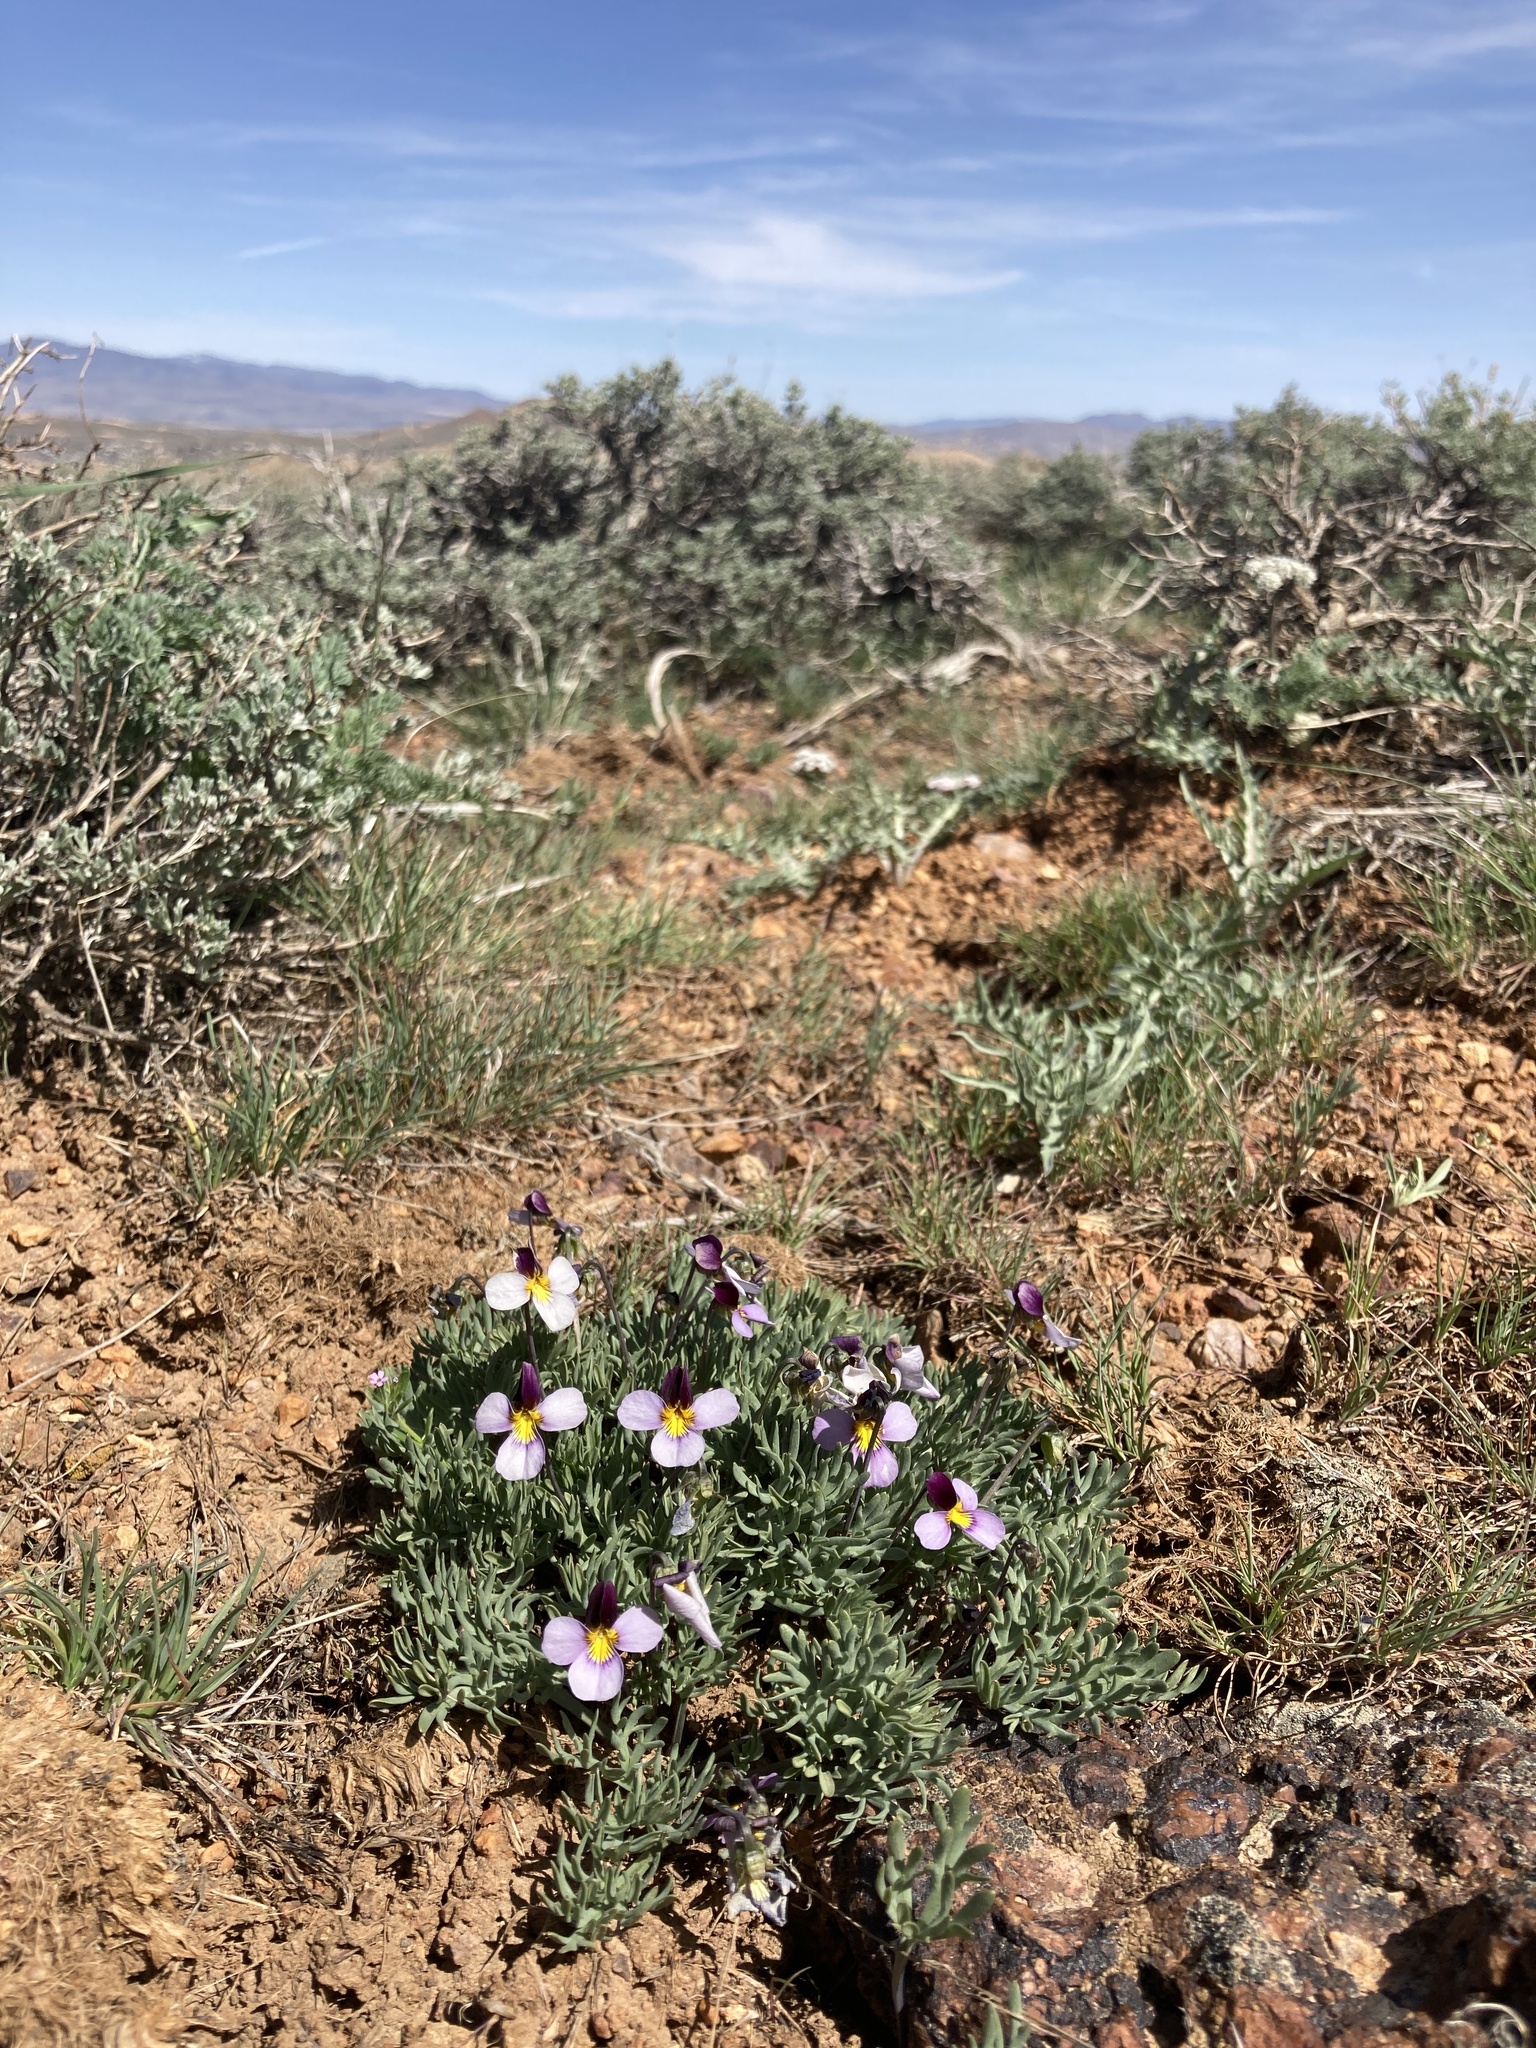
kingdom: Plantae
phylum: Tracheophyta
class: Magnoliopsida
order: Malpighiales
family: Violaceae
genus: Viola
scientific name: Viola beckwithii
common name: Beckwith's violet
